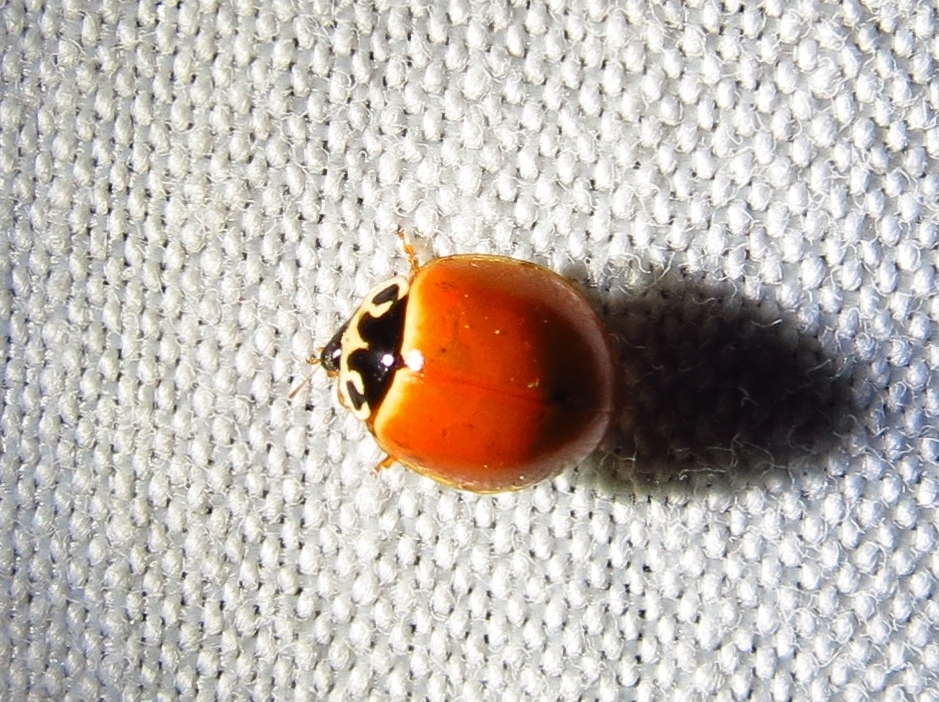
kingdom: Animalia
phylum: Arthropoda
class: Insecta
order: Coleoptera
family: Coccinellidae
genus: Cycloneda
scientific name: Cycloneda munda
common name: Polished lady beetle
